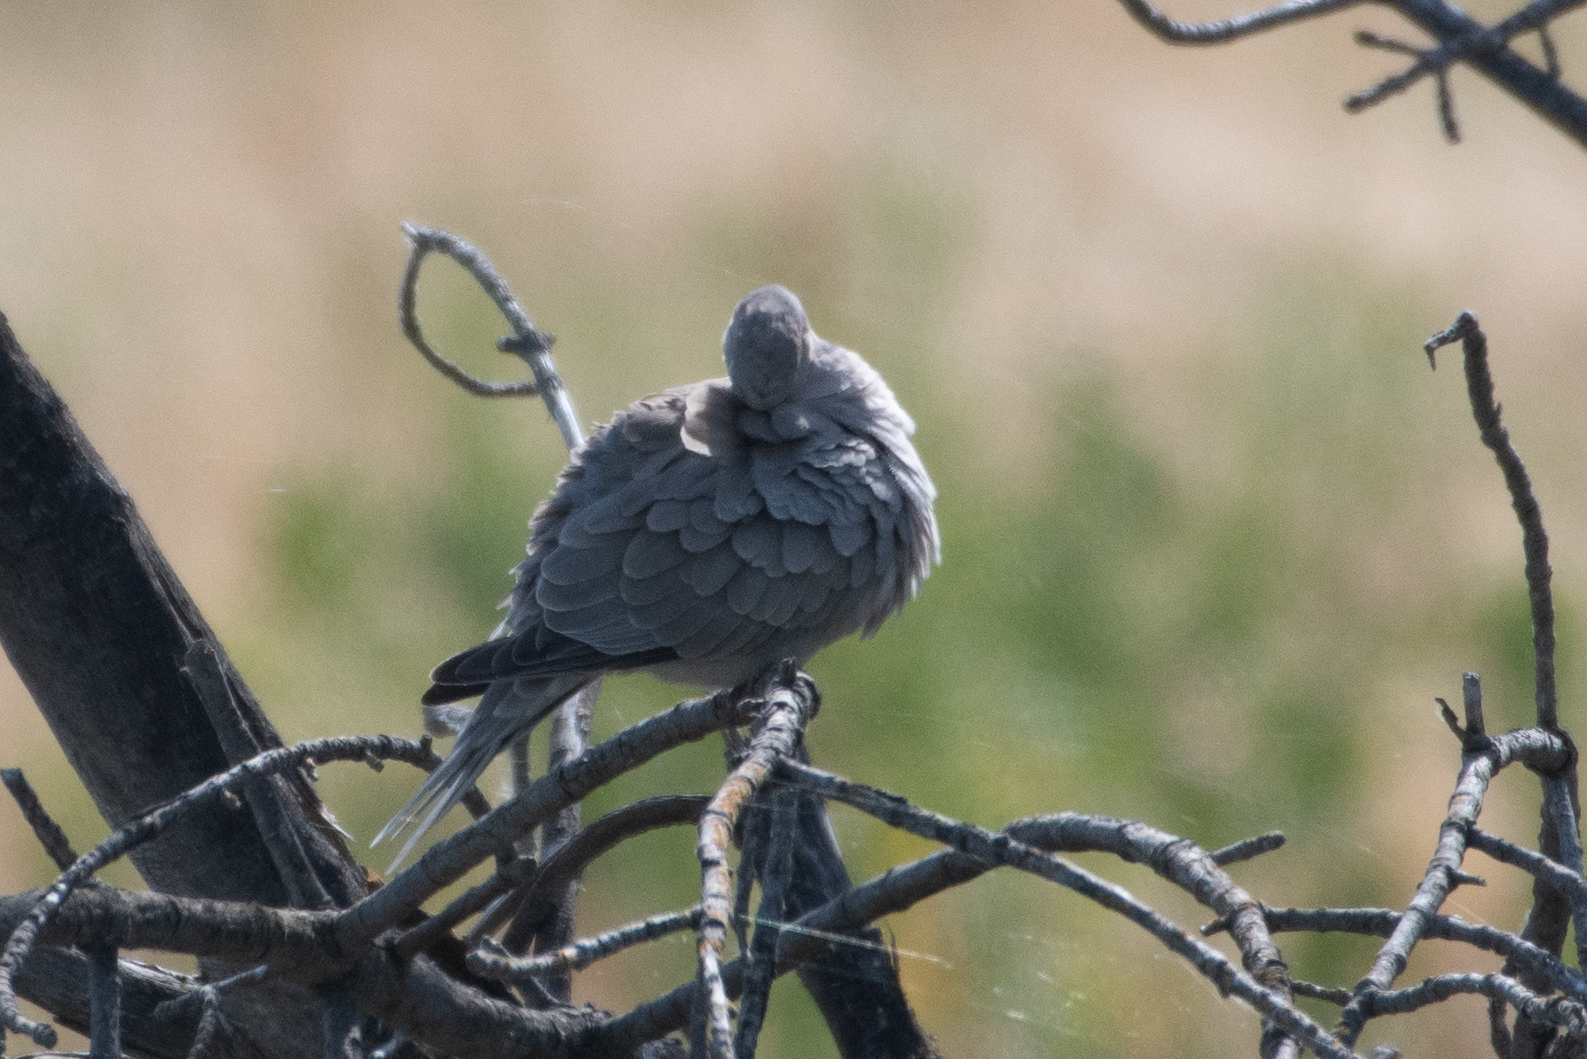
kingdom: Animalia
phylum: Chordata
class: Aves
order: Columbiformes
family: Columbidae
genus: Streptopelia
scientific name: Streptopelia decaocto
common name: Eurasian collared dove
